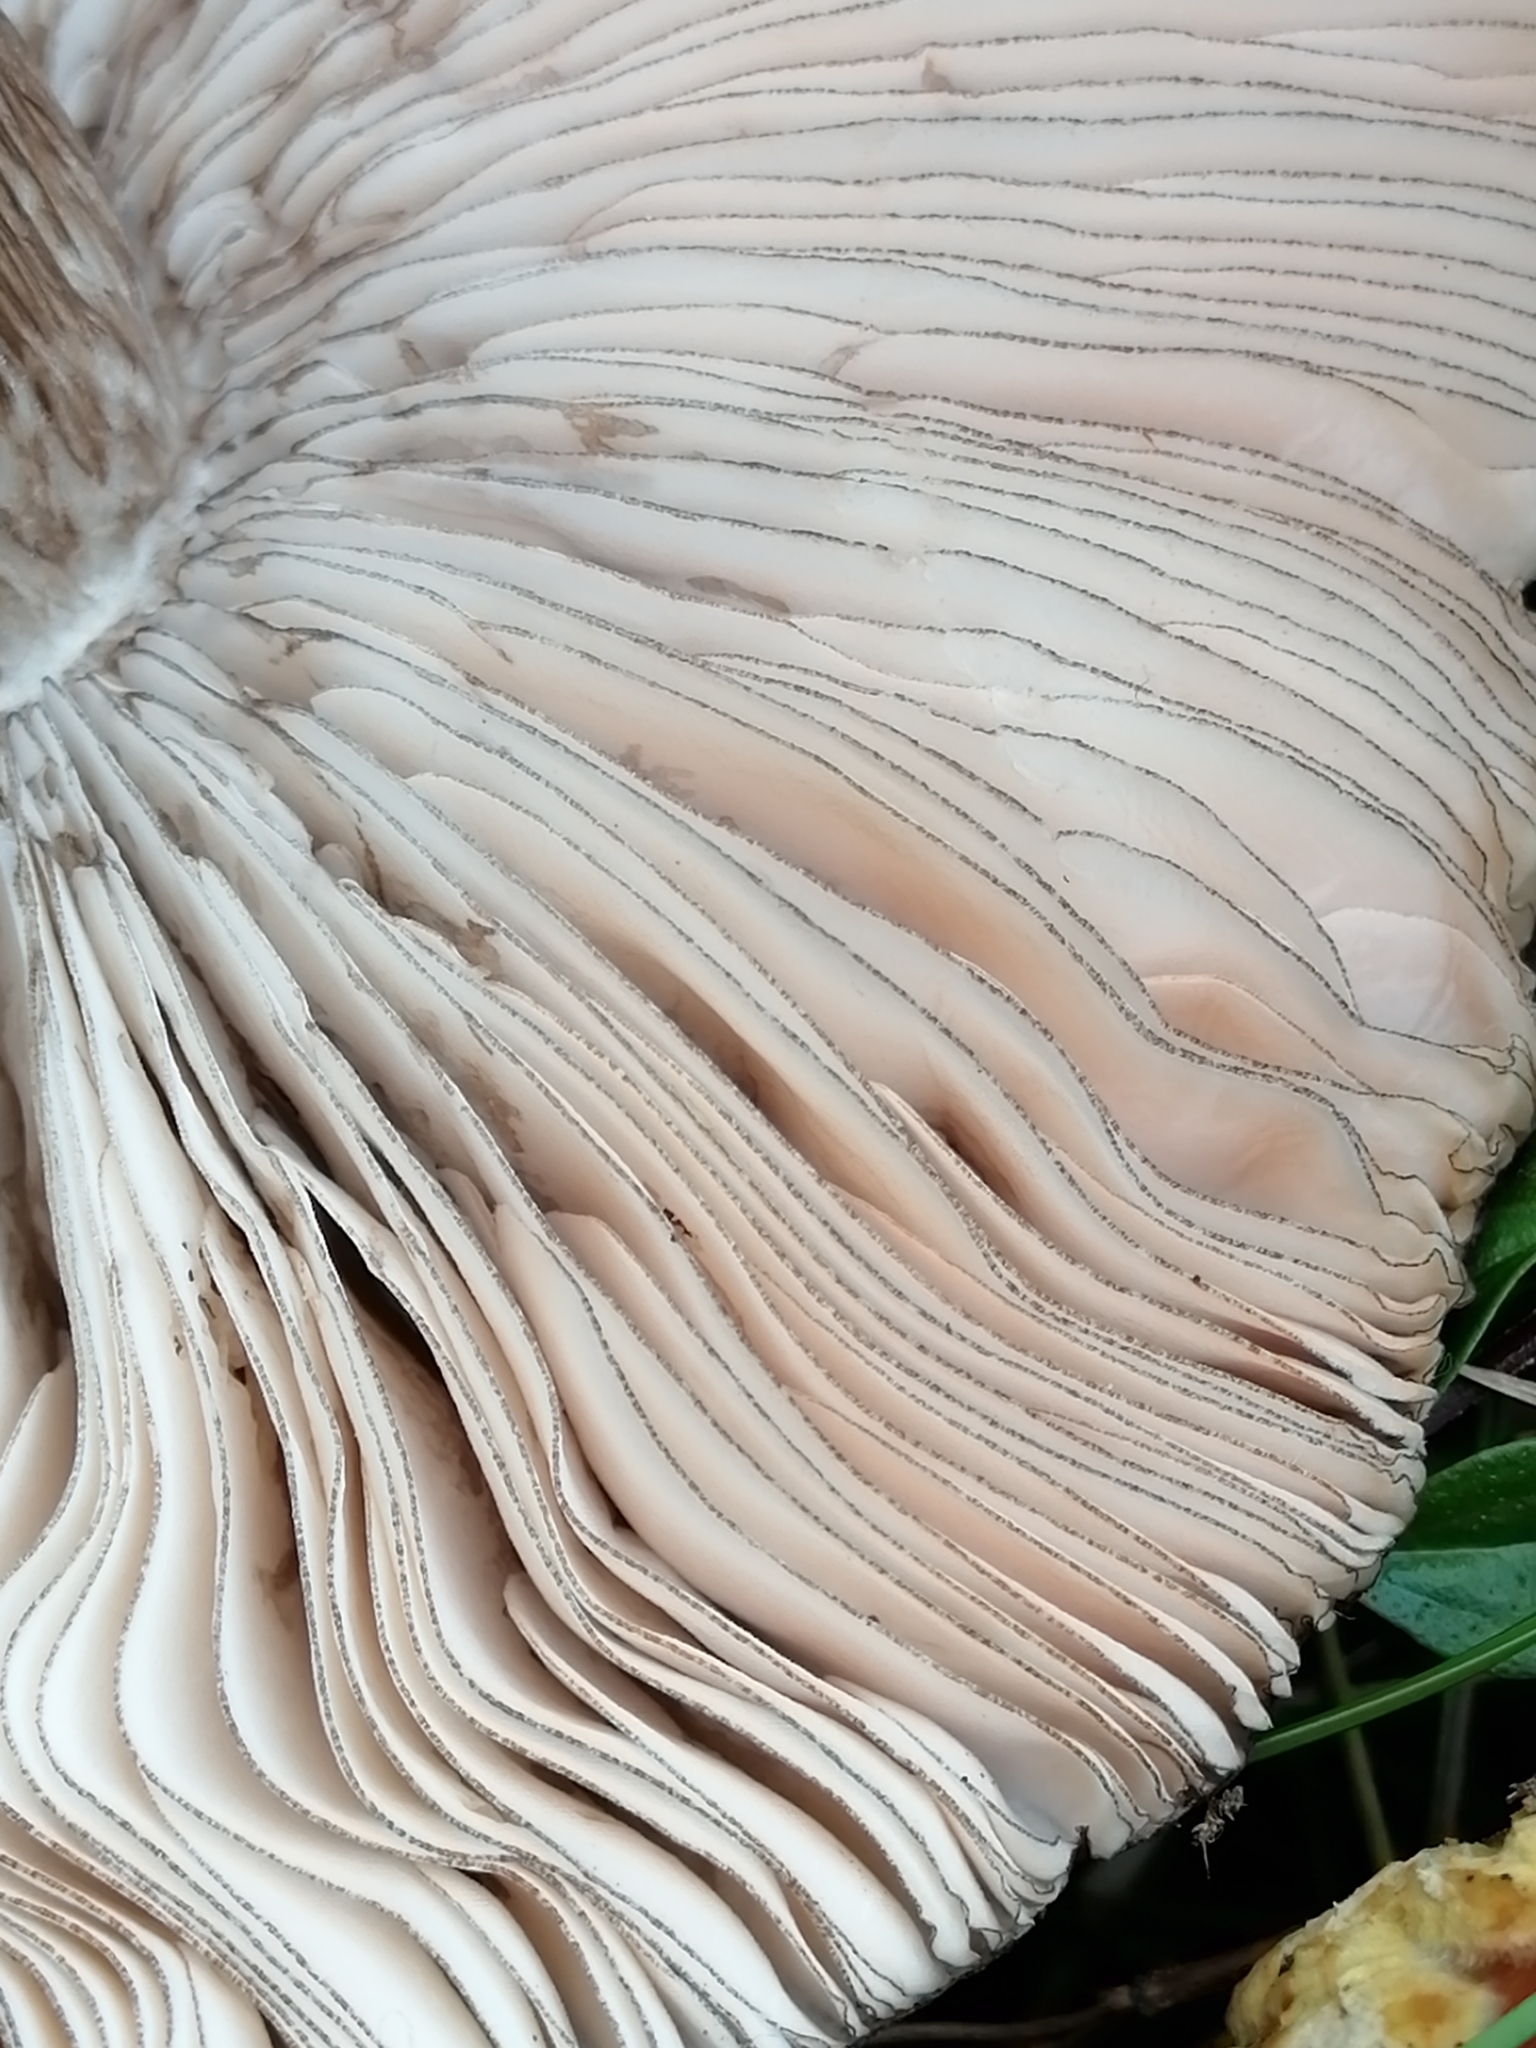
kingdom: Fungi
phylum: Basidiomycota
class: Agaricomycetes
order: Agaricales
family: Pluteaceae
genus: Pluteus
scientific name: Pluteus atromarginatus
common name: Blackedged shield
